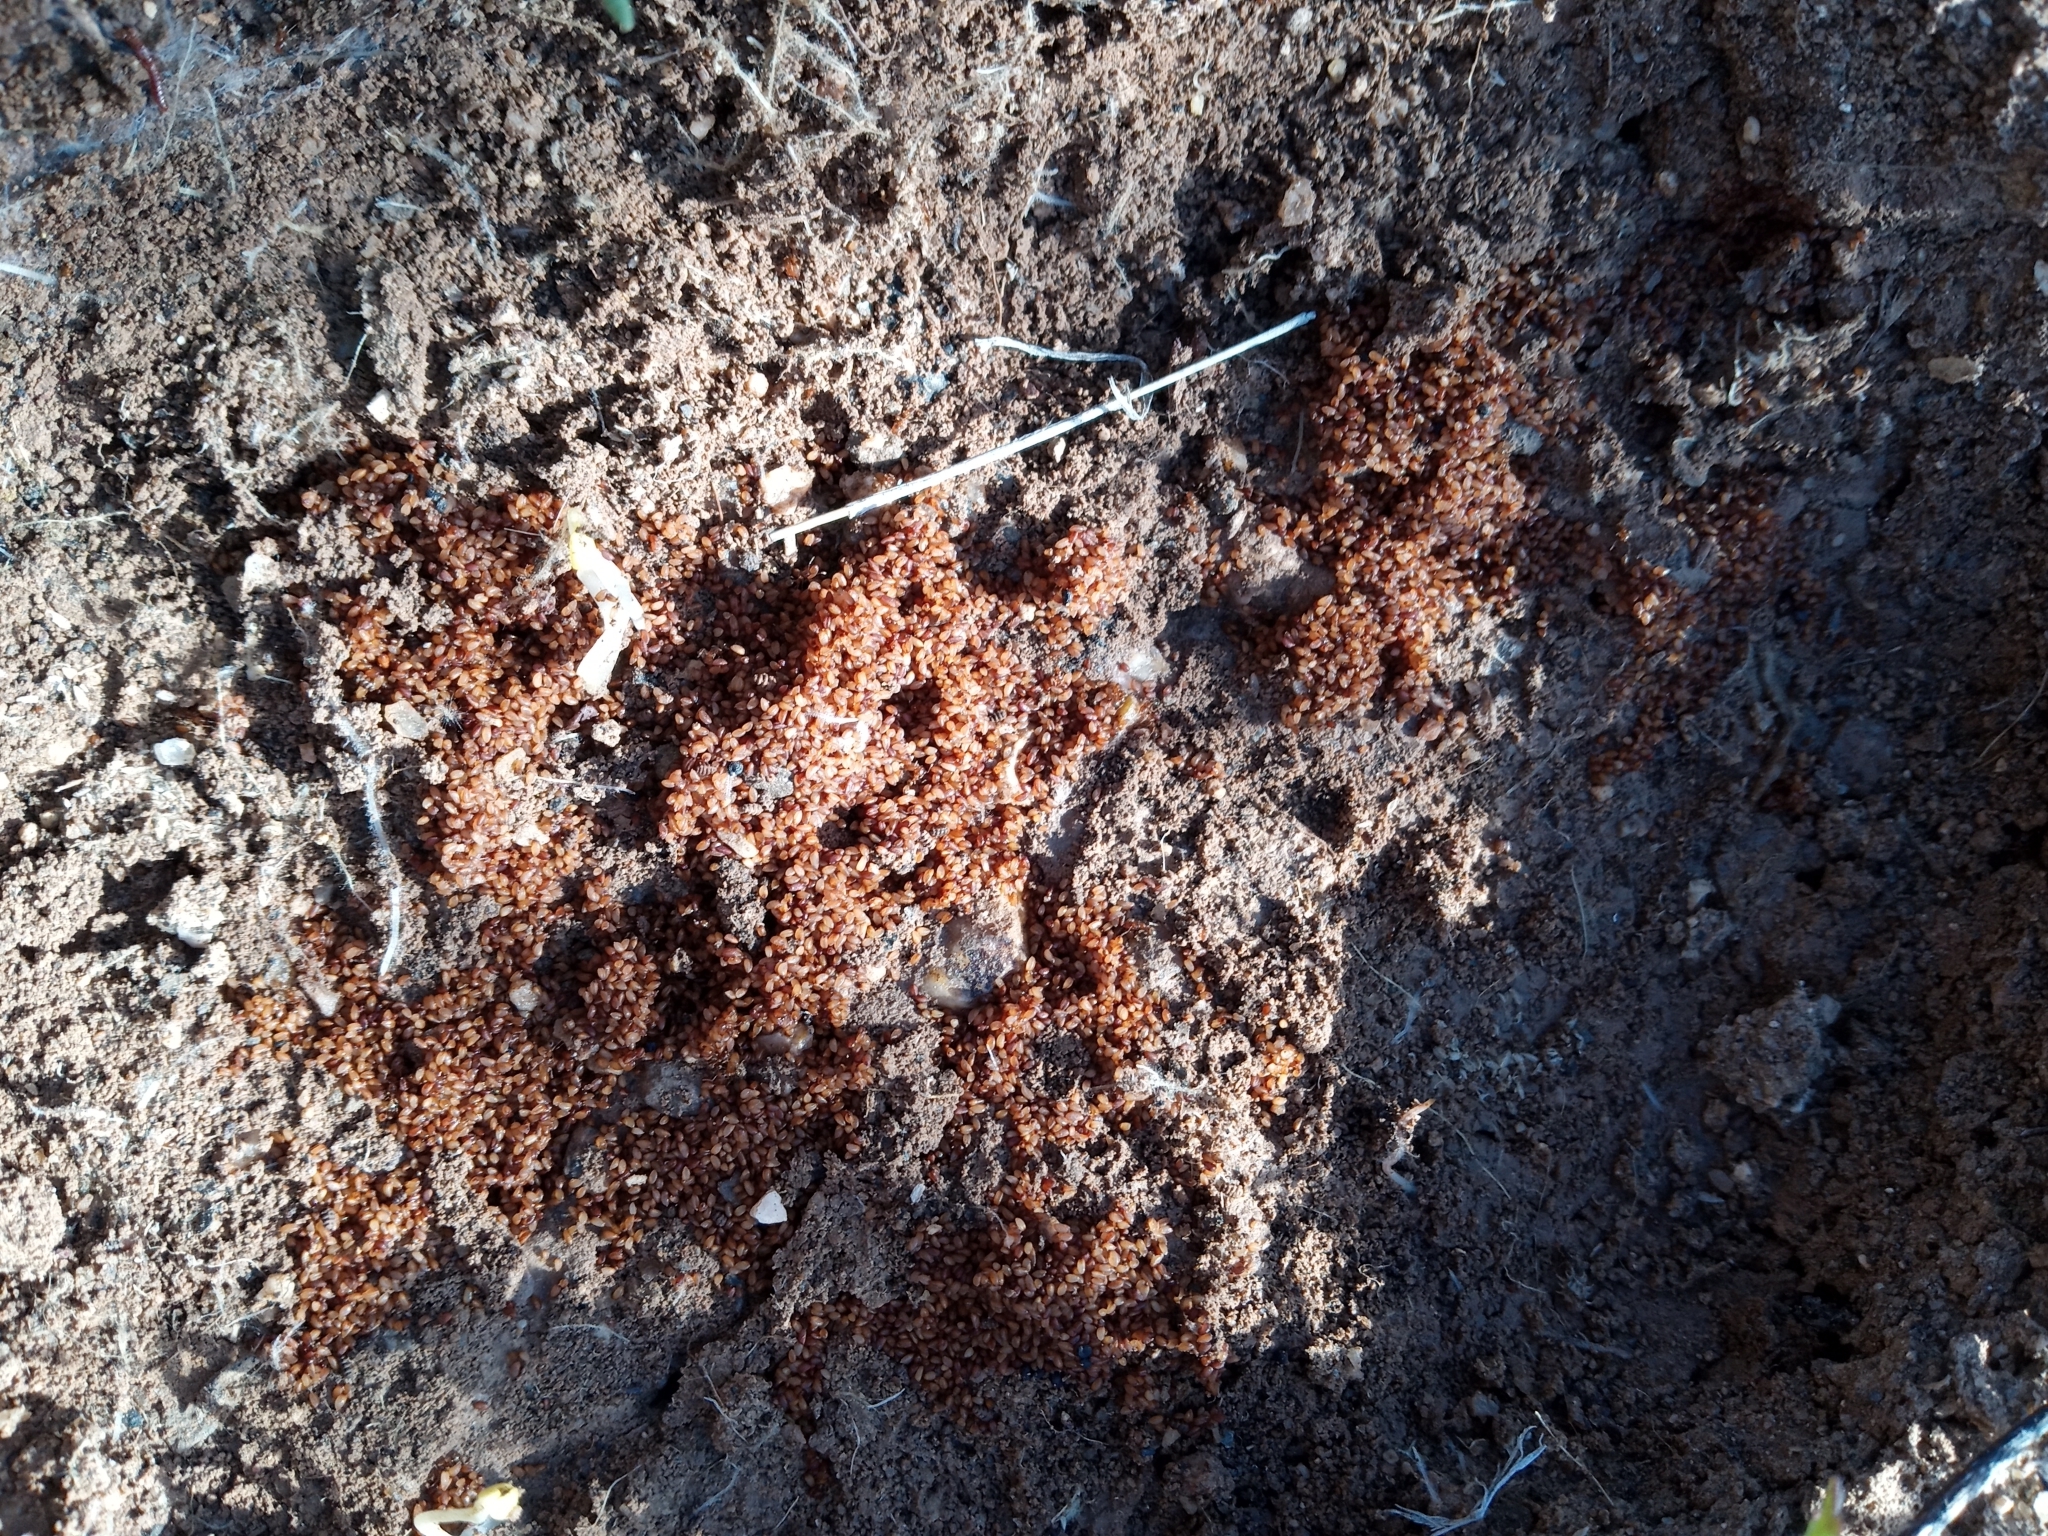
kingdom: Animalia
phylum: Arthropoda
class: Insecta
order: Hymenoptera
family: Formicidae
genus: Pheidole
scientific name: Pheidole
